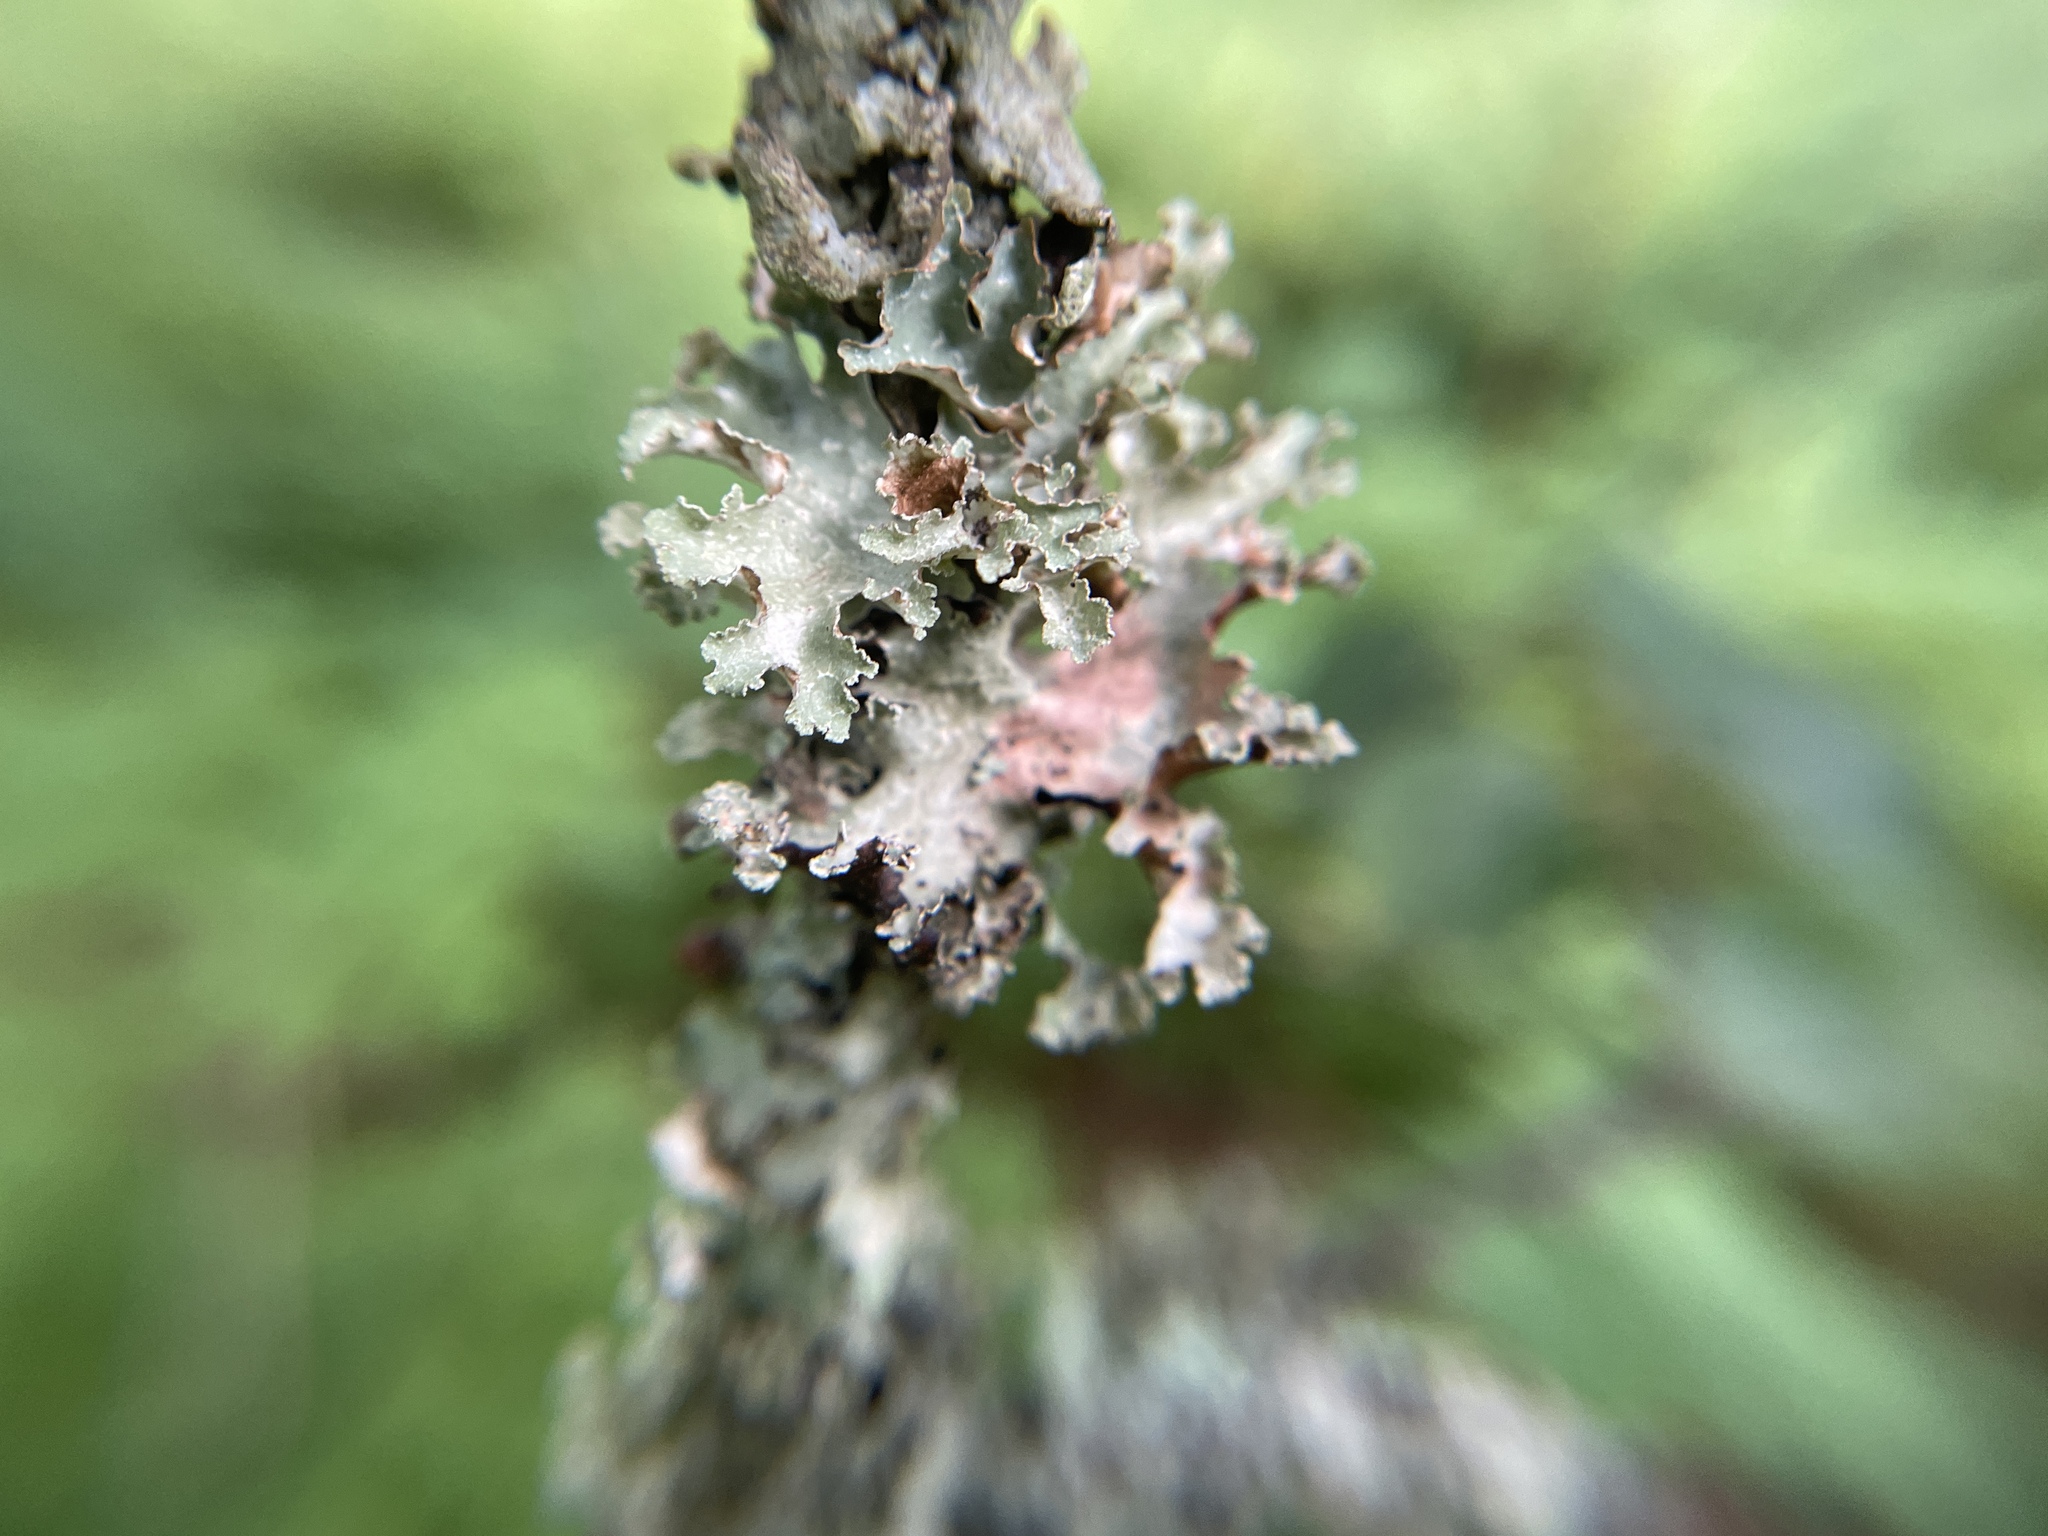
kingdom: Fungi
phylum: Ascomycota
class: Lecanoromycetes
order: Lecanorales
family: Parmeliaceae
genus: Platismatia
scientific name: Platismatia glauca
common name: Varied rag lichen
